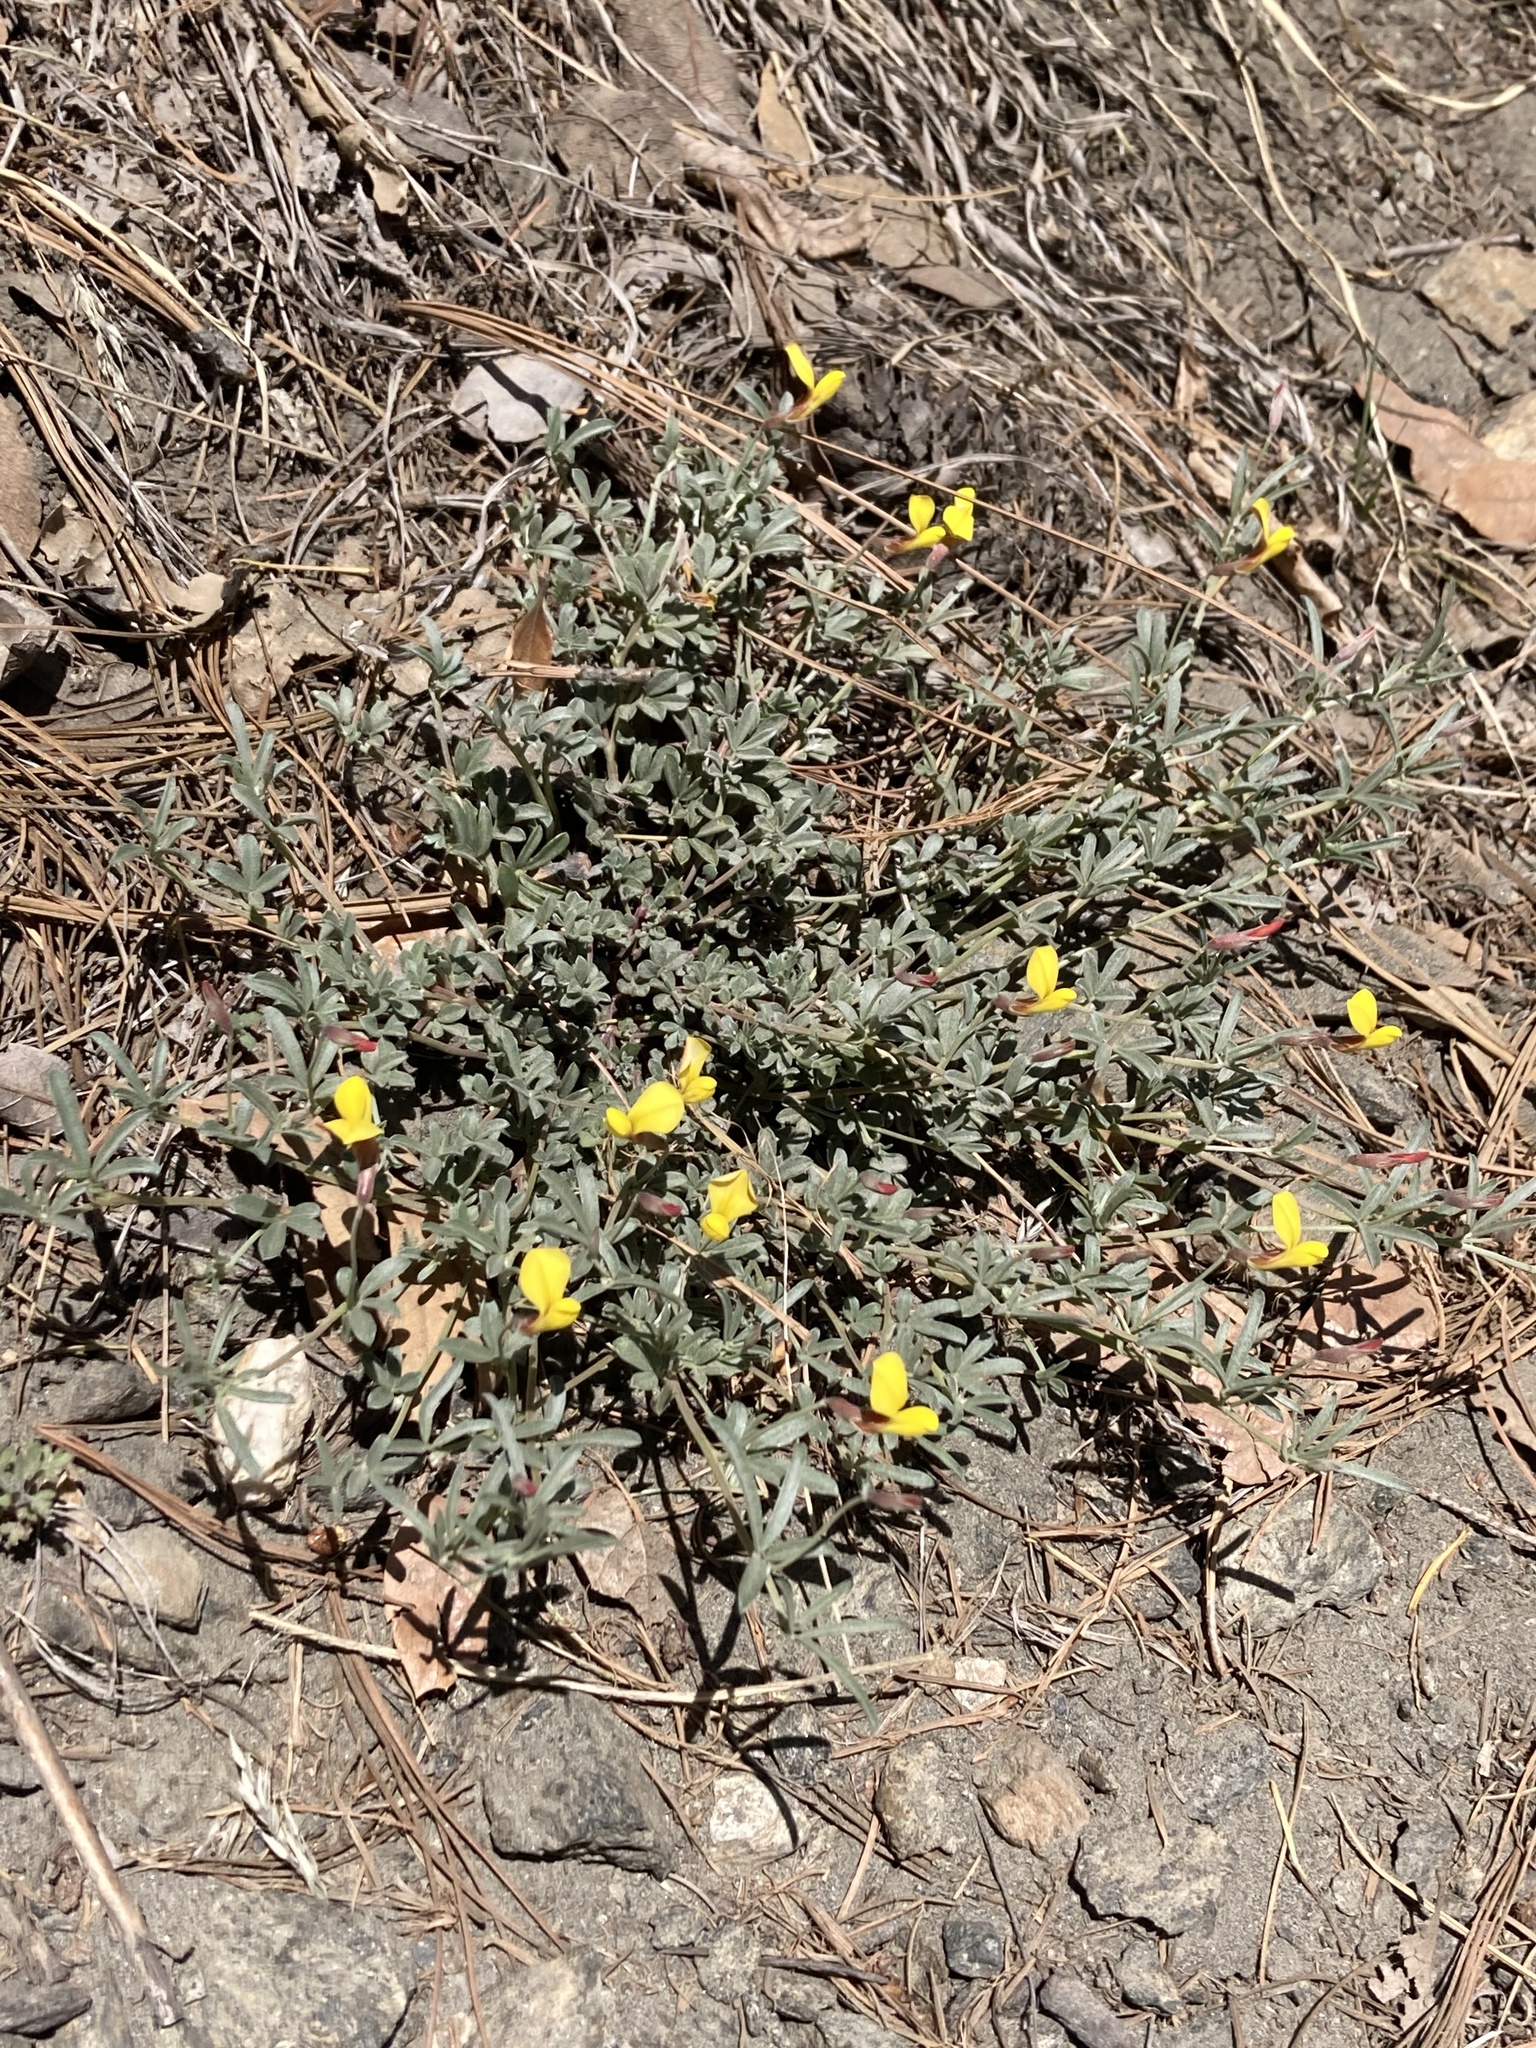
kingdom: Plantae
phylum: Tracheophyta
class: Magnoliopsida
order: Fabales
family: Fabaceae
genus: Acmispon
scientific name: Acmispon oroboides
